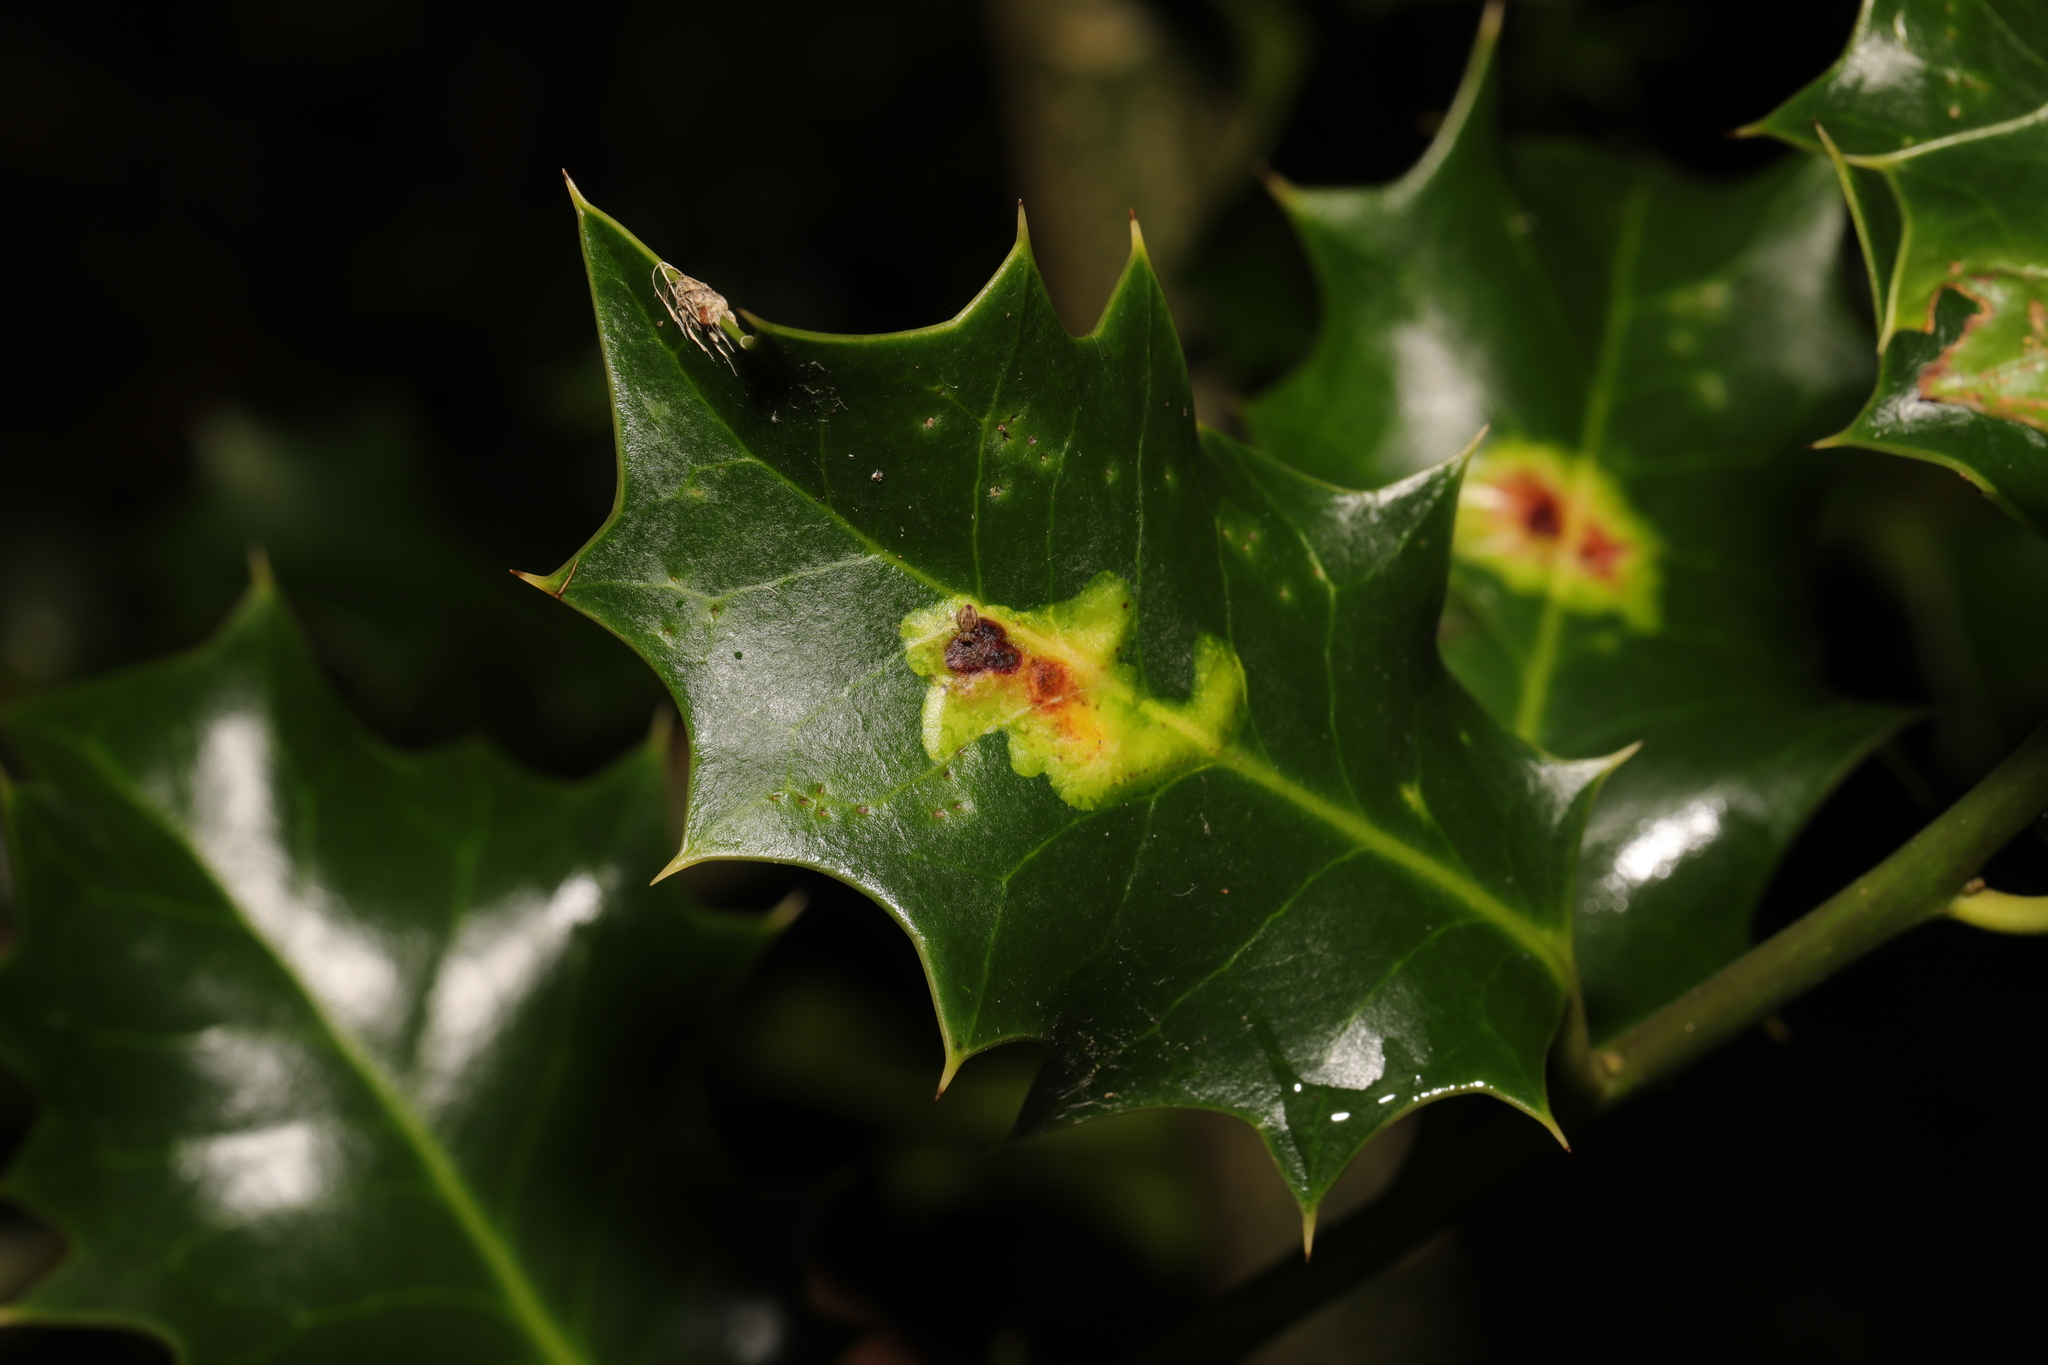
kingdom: Animalia
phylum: Arthropoda
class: Insecta
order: Diptera
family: Agromyzidae
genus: Phytomyza
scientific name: Phytomyza ilicis
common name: Holly leafminer
